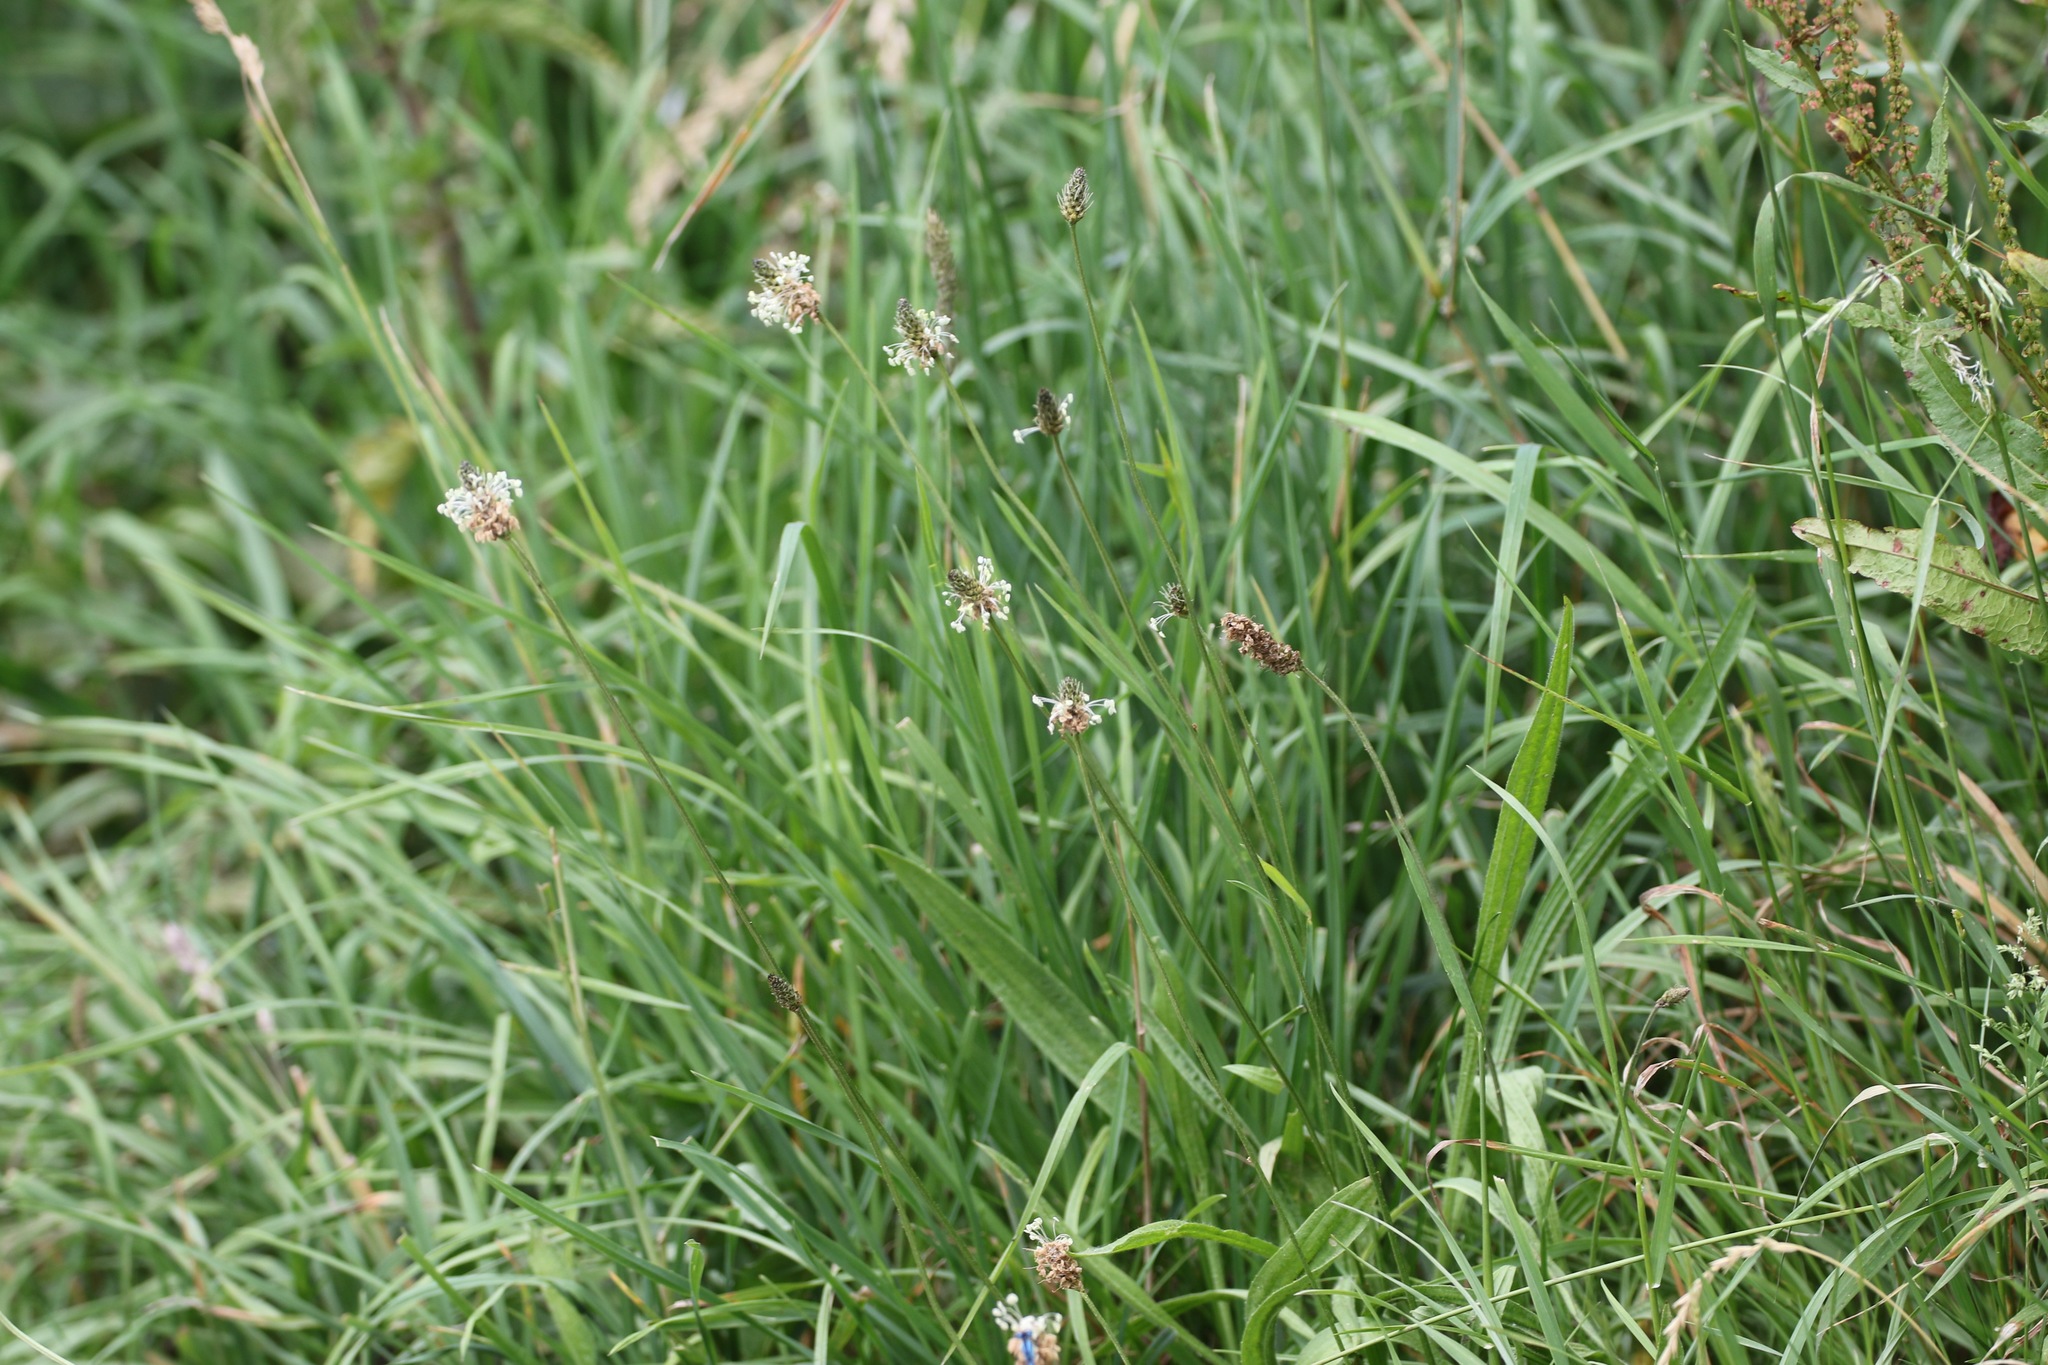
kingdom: Plantae
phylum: Tracheophyta
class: Magnoliopsida
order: Lamiales
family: Plantaginaceae
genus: Plantago
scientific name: Plantago lanceolata
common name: Ribwort plantain
